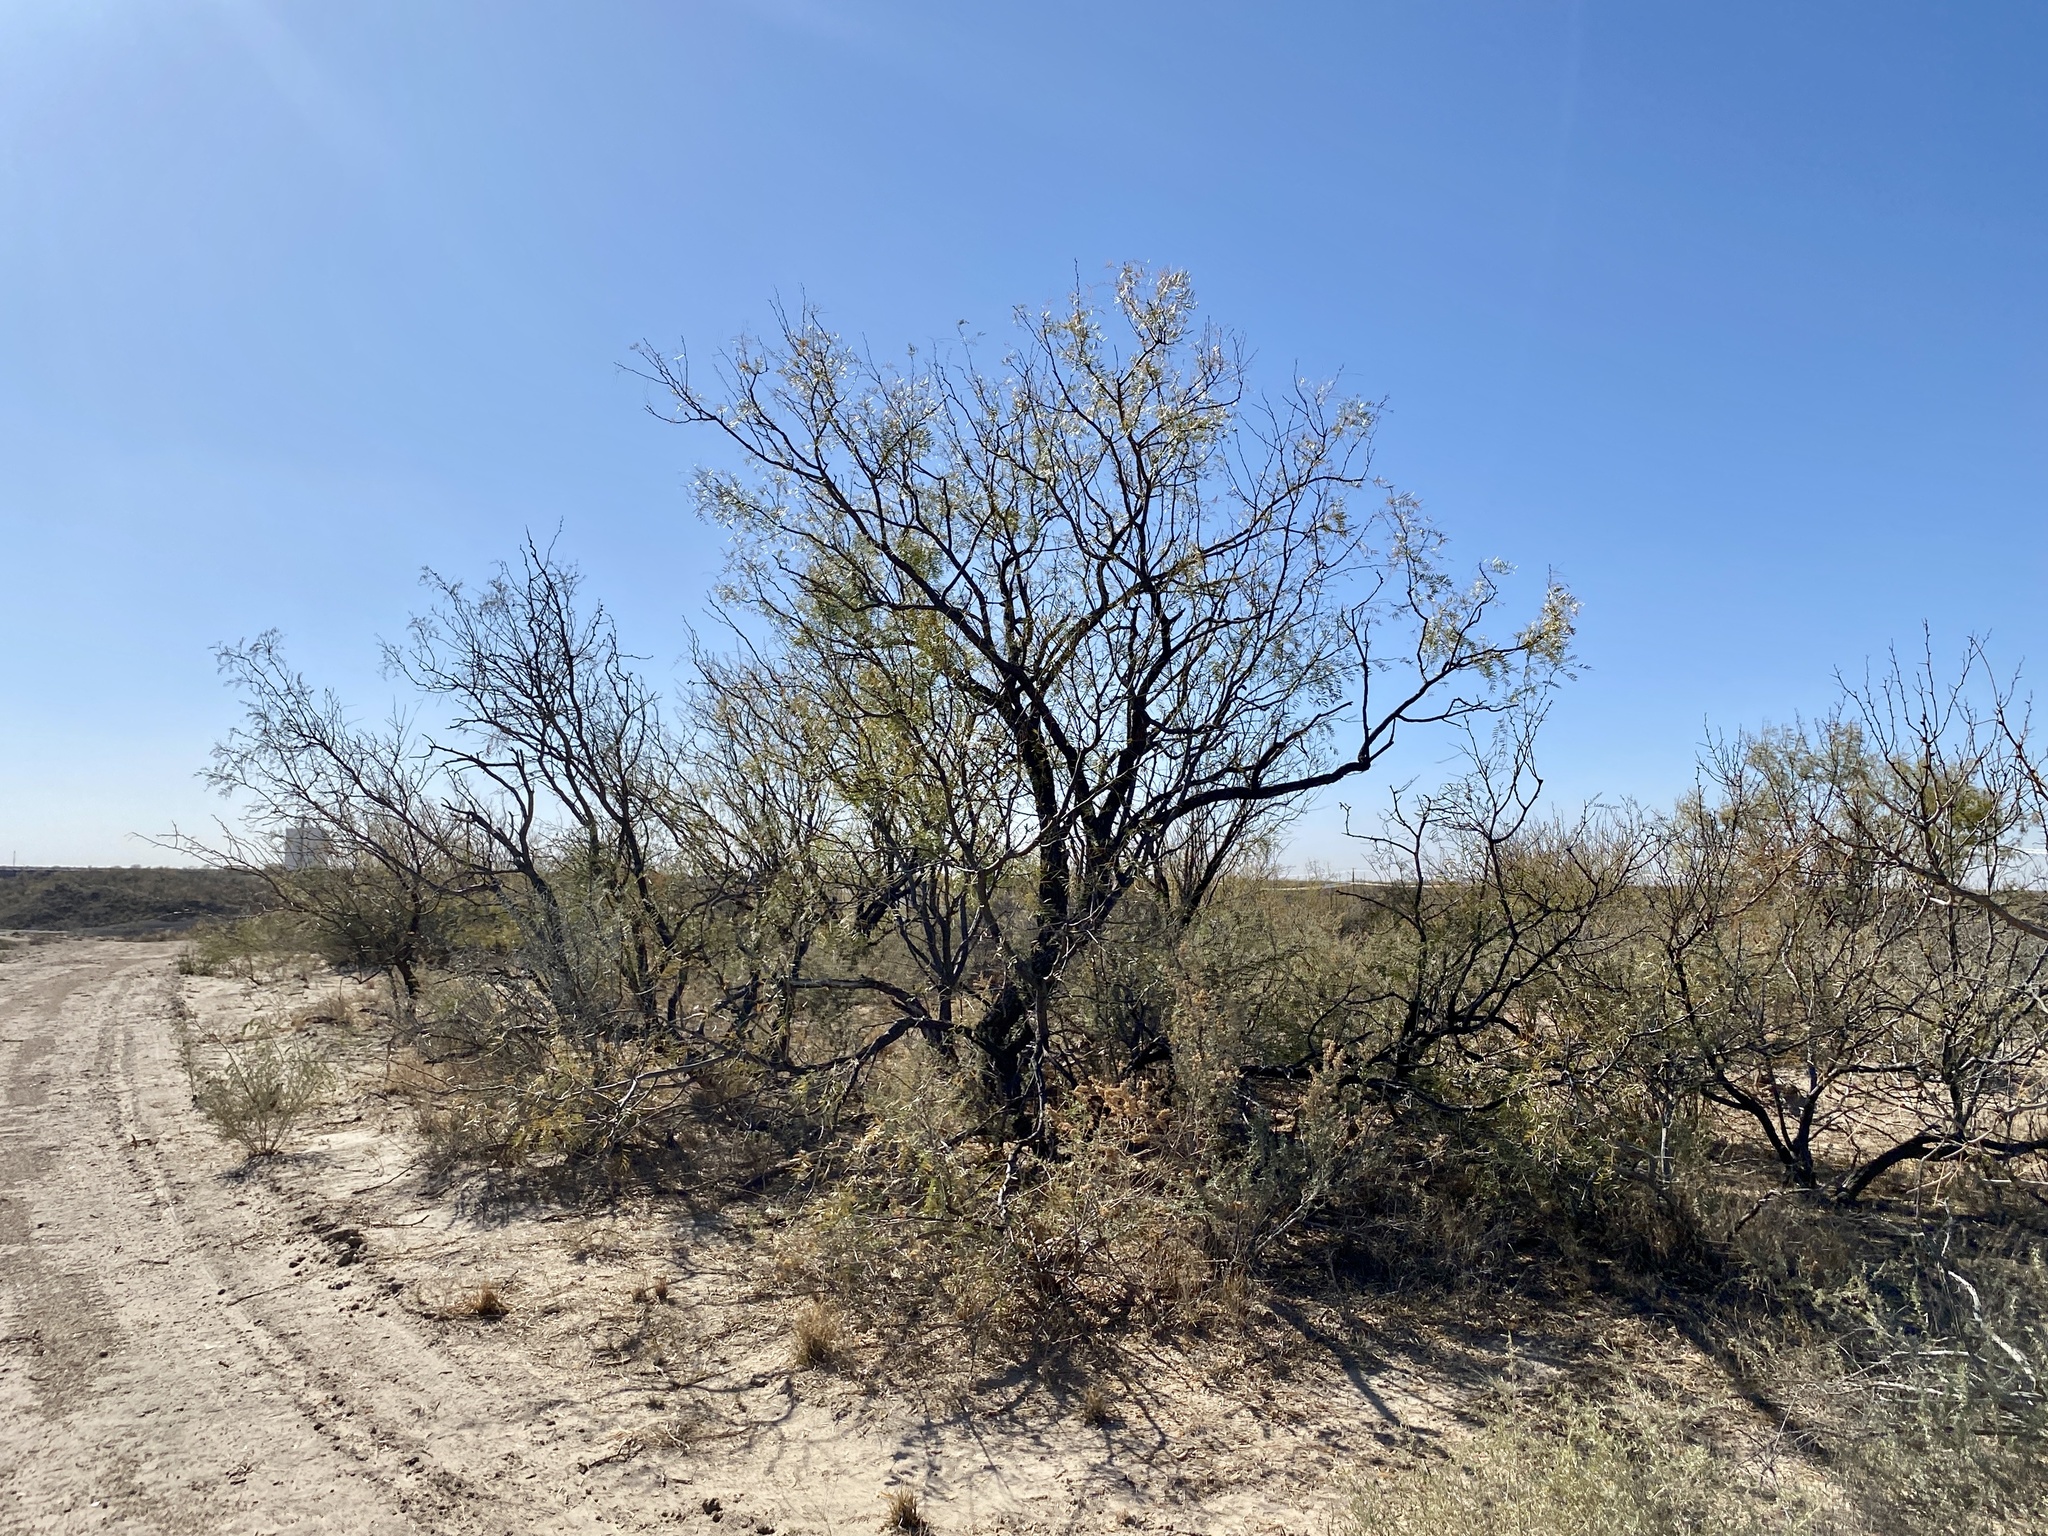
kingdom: Plantae
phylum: Tracheophyta
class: Magnoliopsida
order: Fabales
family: Fabaceae
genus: Prosopis
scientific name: Prosopis glandulosa
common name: Honey mesquite
